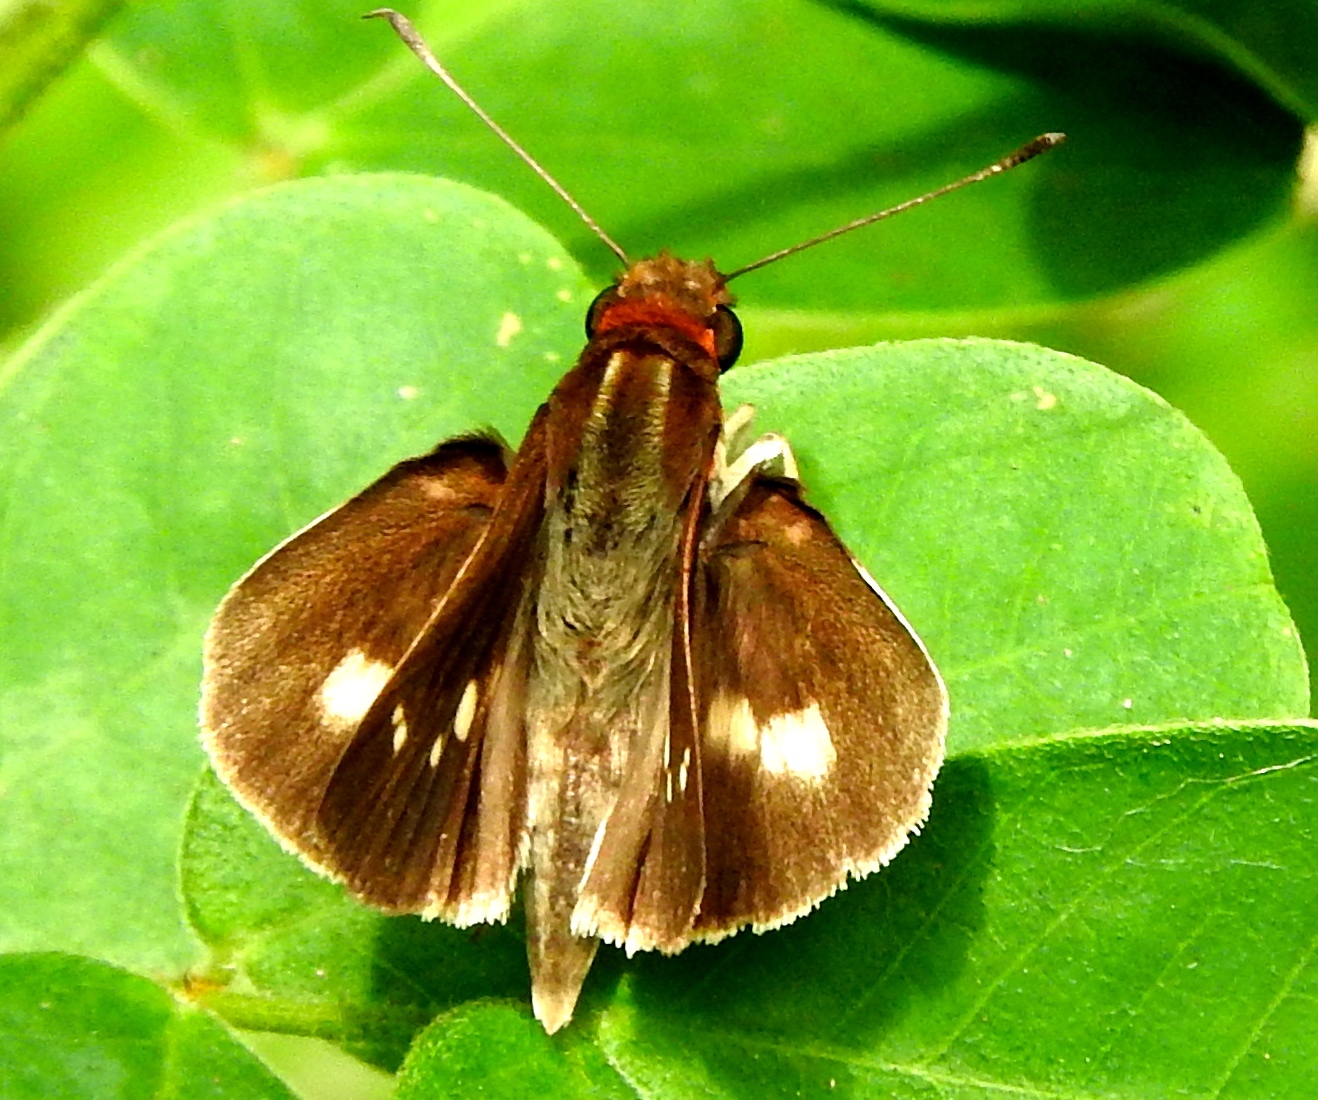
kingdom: Animalia
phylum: Arthropoda
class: Insecta
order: Lepidoptera
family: Hesperiidae
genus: Troyus
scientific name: Troyus fantasos
